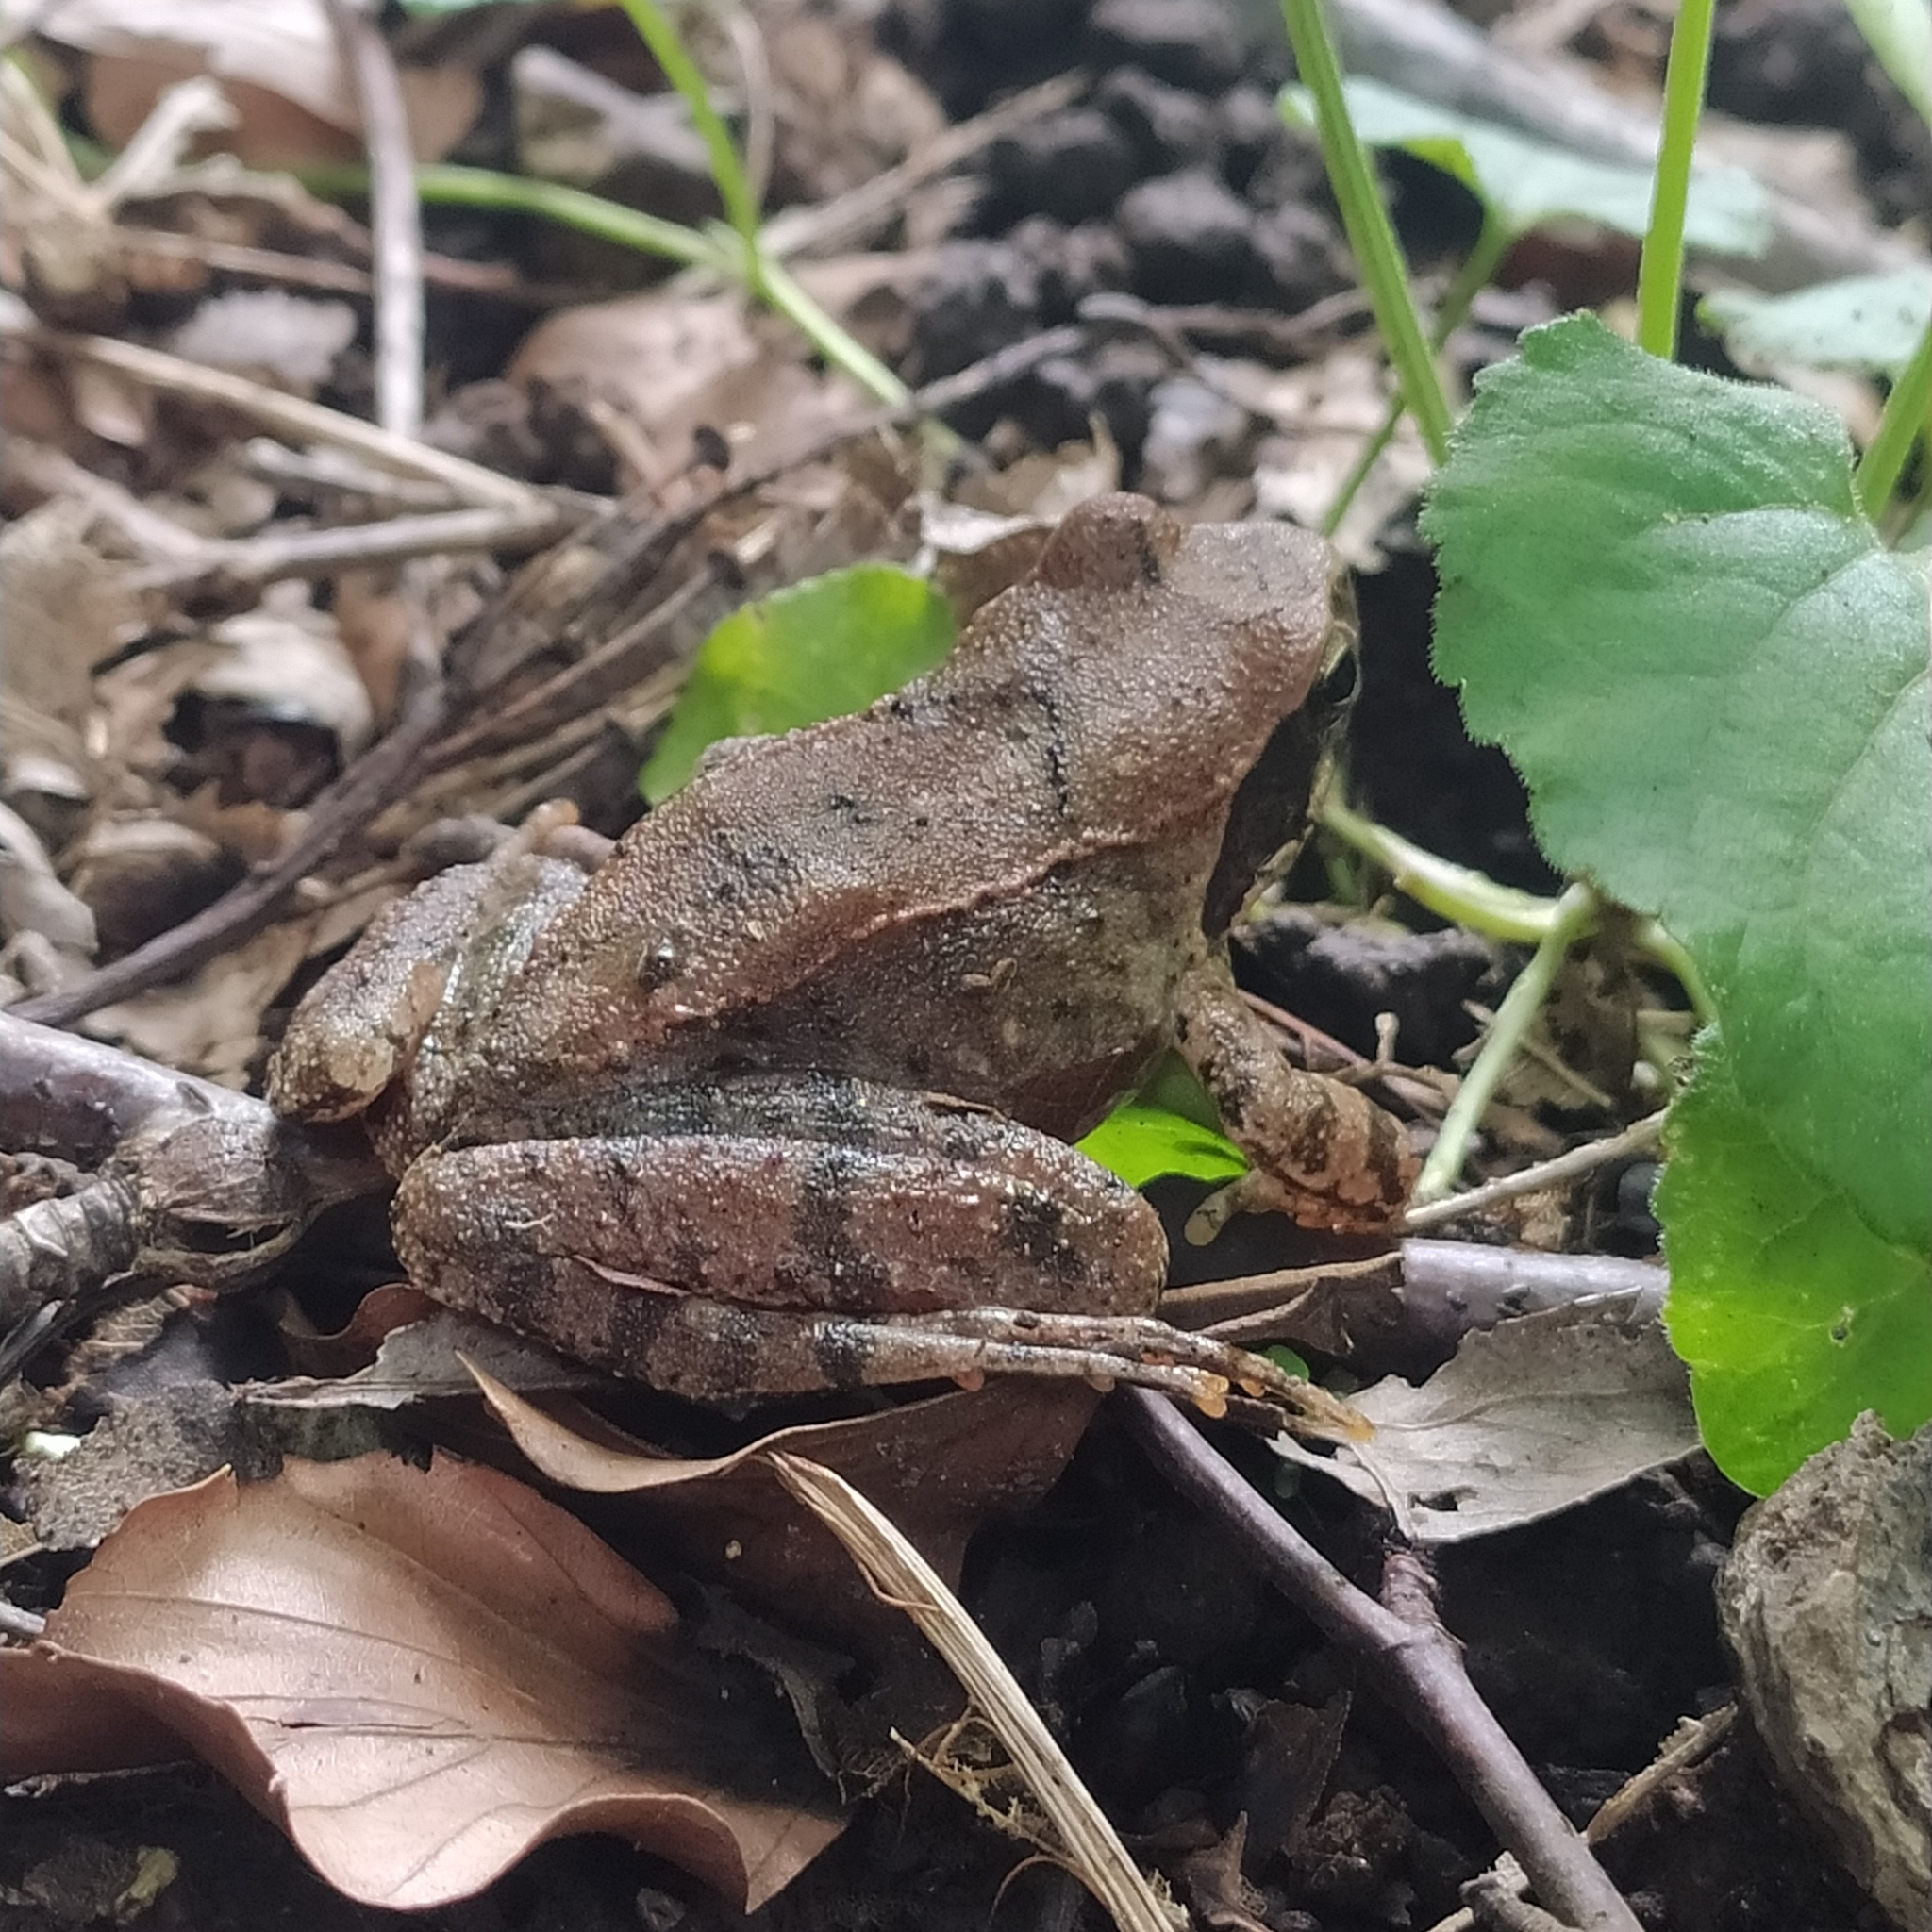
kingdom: Animalia
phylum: Chordata
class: Amphibia
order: Anura
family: Ranidae
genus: Rana
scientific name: Rana italica
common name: Italian stream frog
